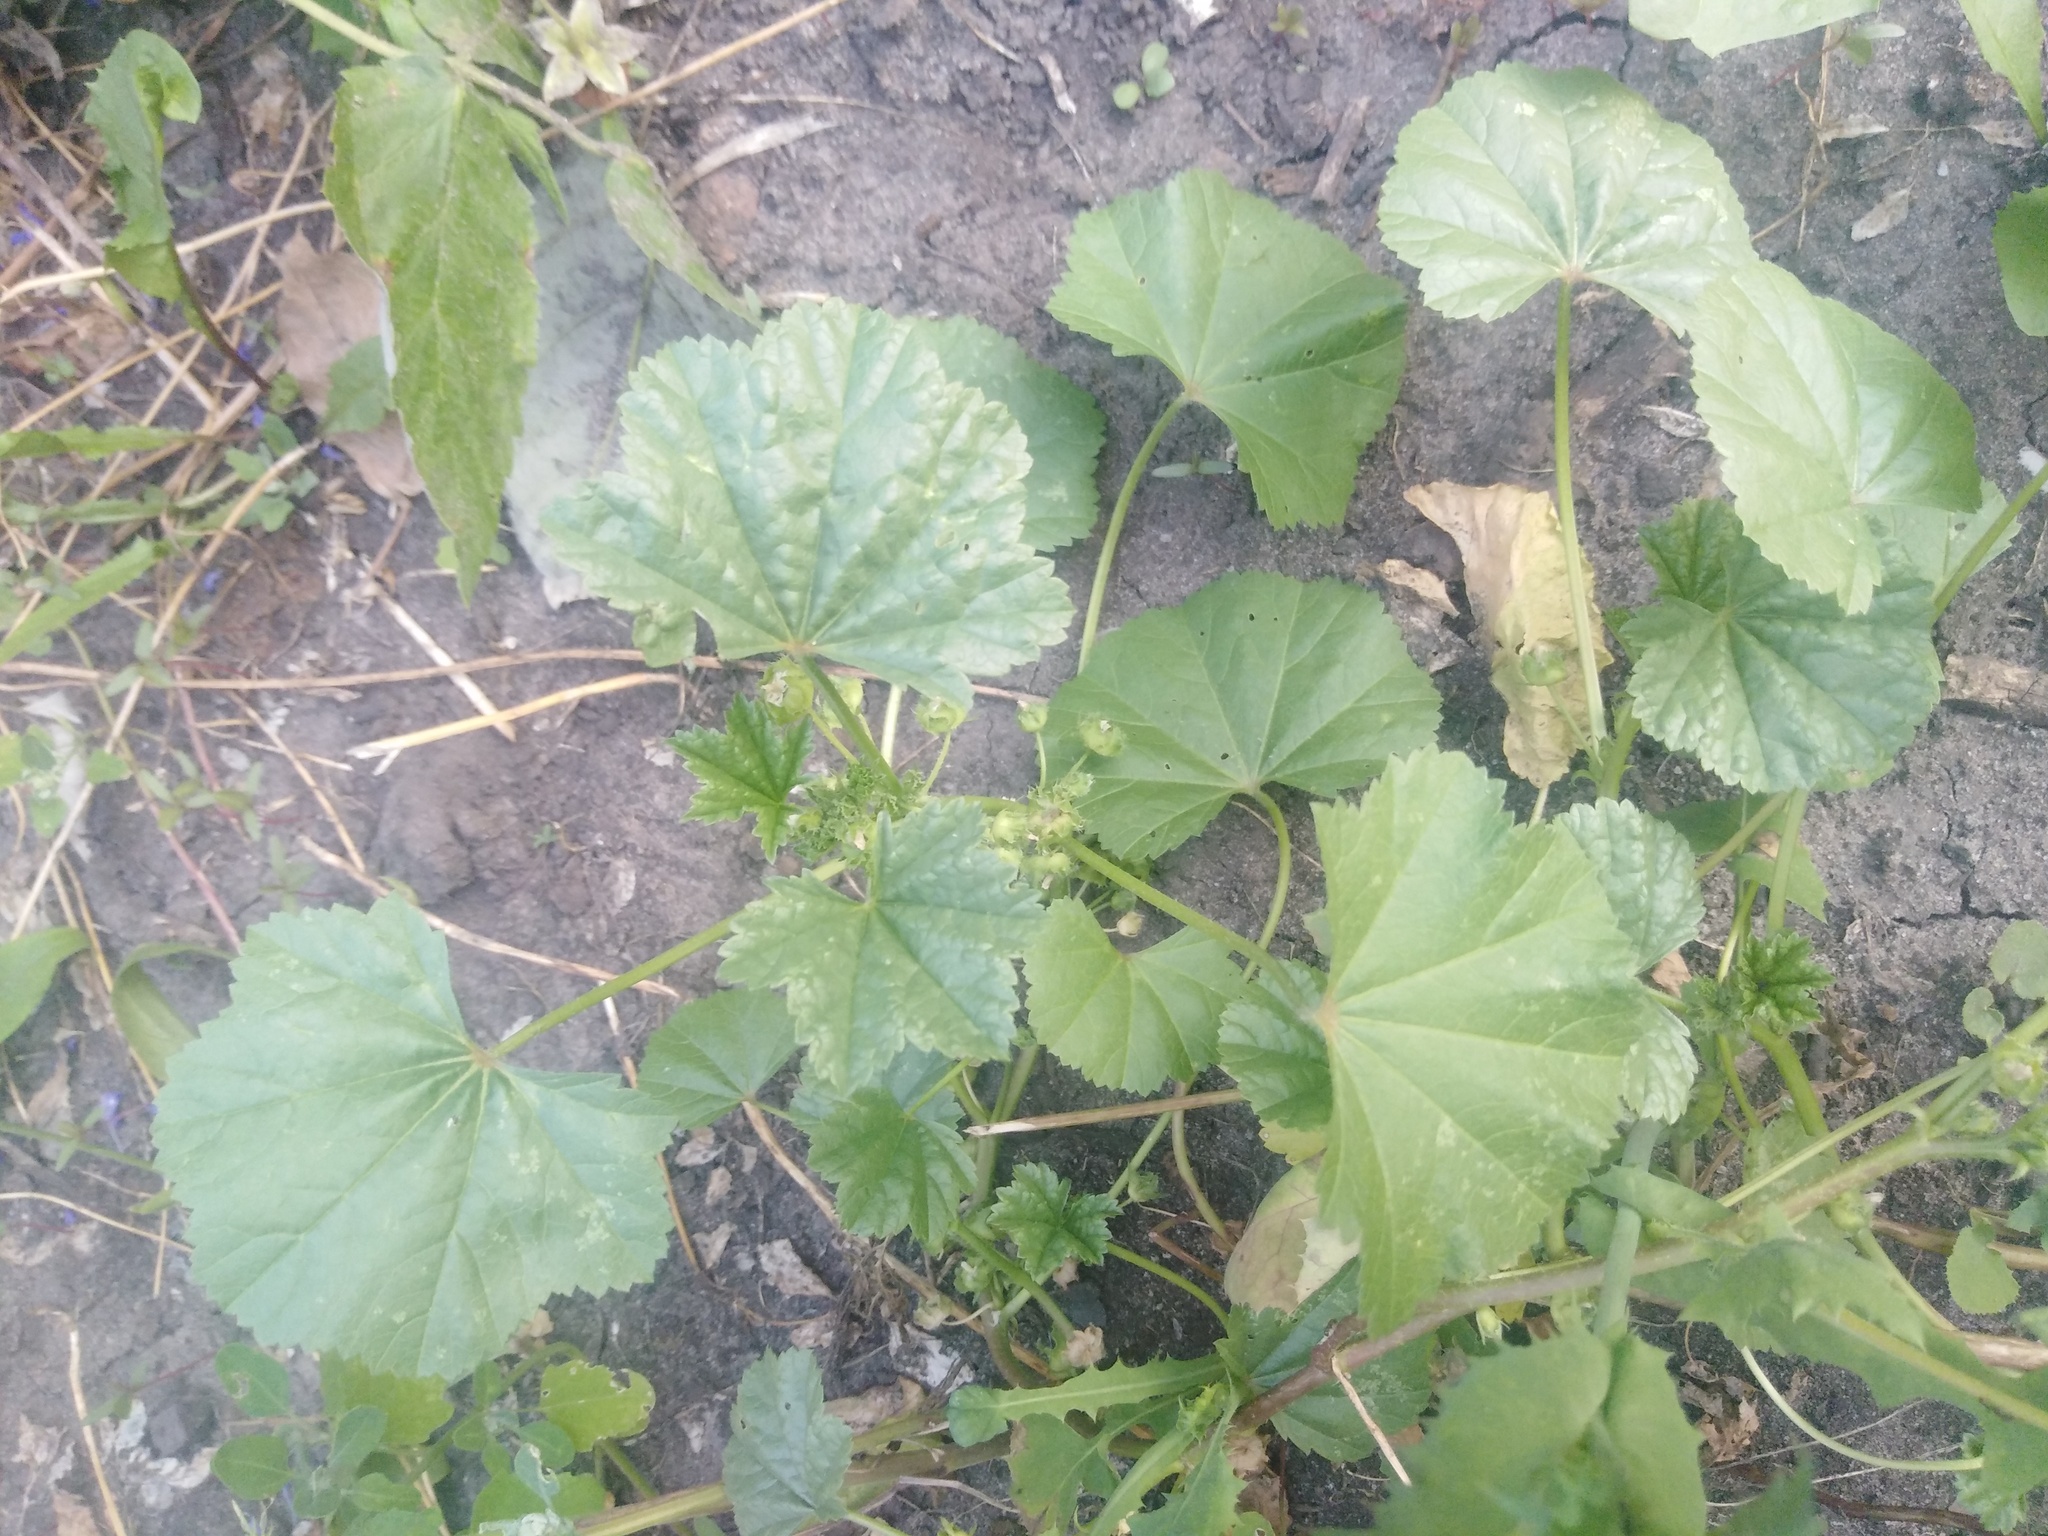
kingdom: Plantae
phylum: Tracheophyta
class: Magnoliopsida
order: Malvales
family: Malvaceae
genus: Malva
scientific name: Malva pusilla
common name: Small mallow
